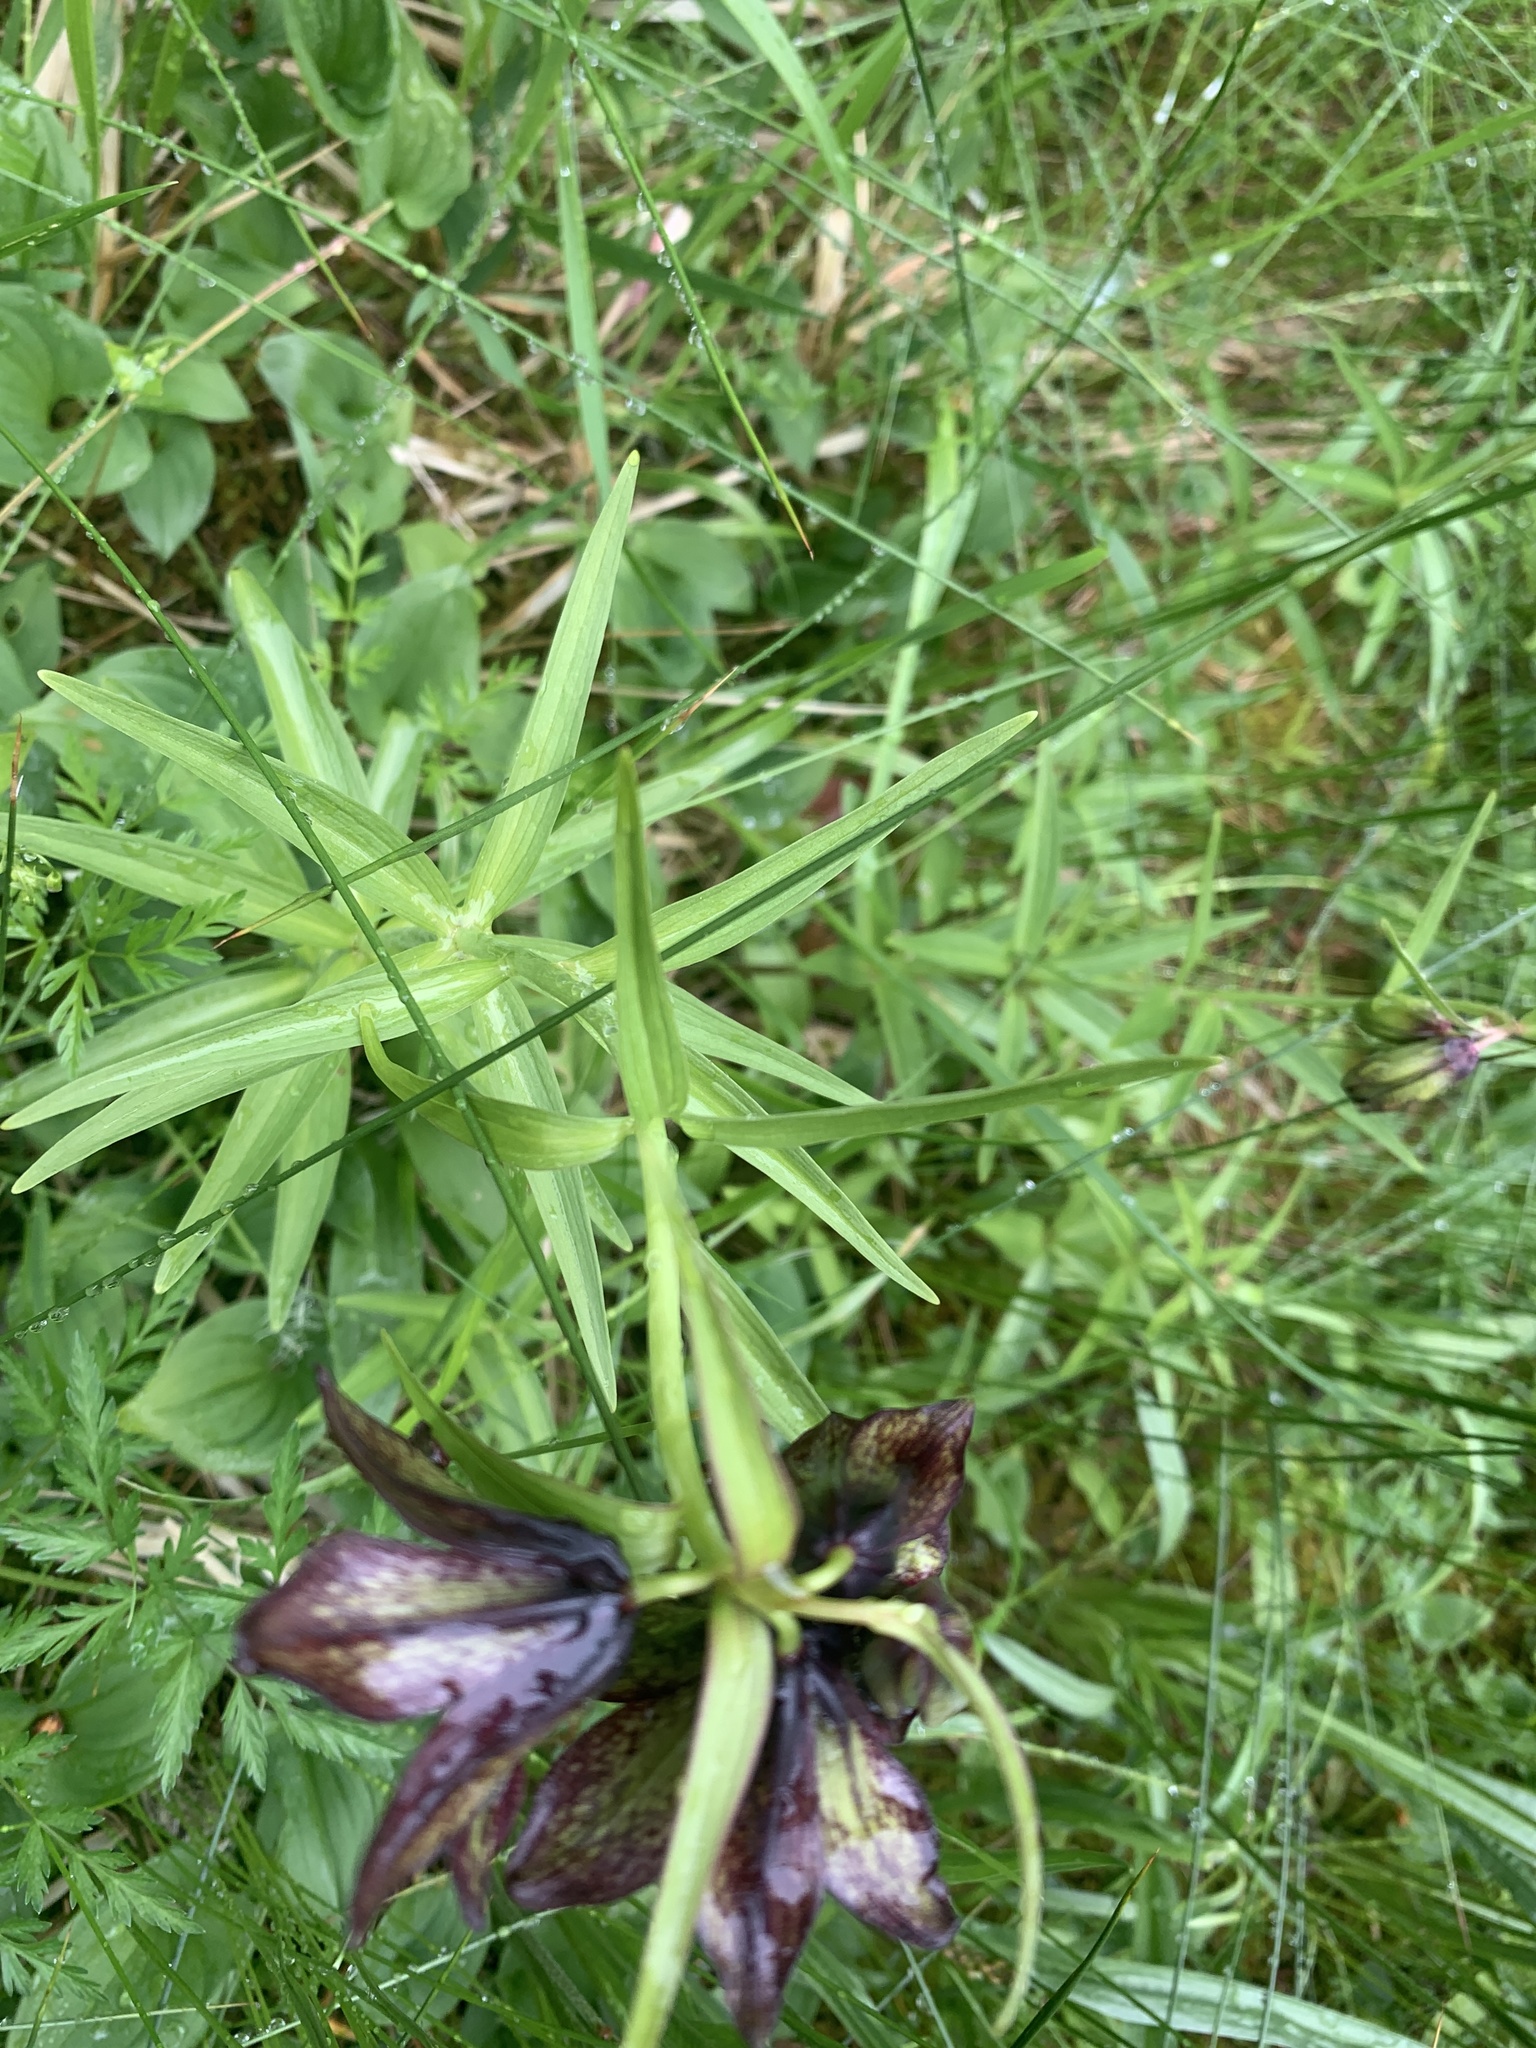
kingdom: Plantae
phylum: Tracheophyta
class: Liliopsida
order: Liliales
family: Liliaceae
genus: Fritillaria
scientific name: Fritillaria camschatcensis
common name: Kamchatka fritillary
